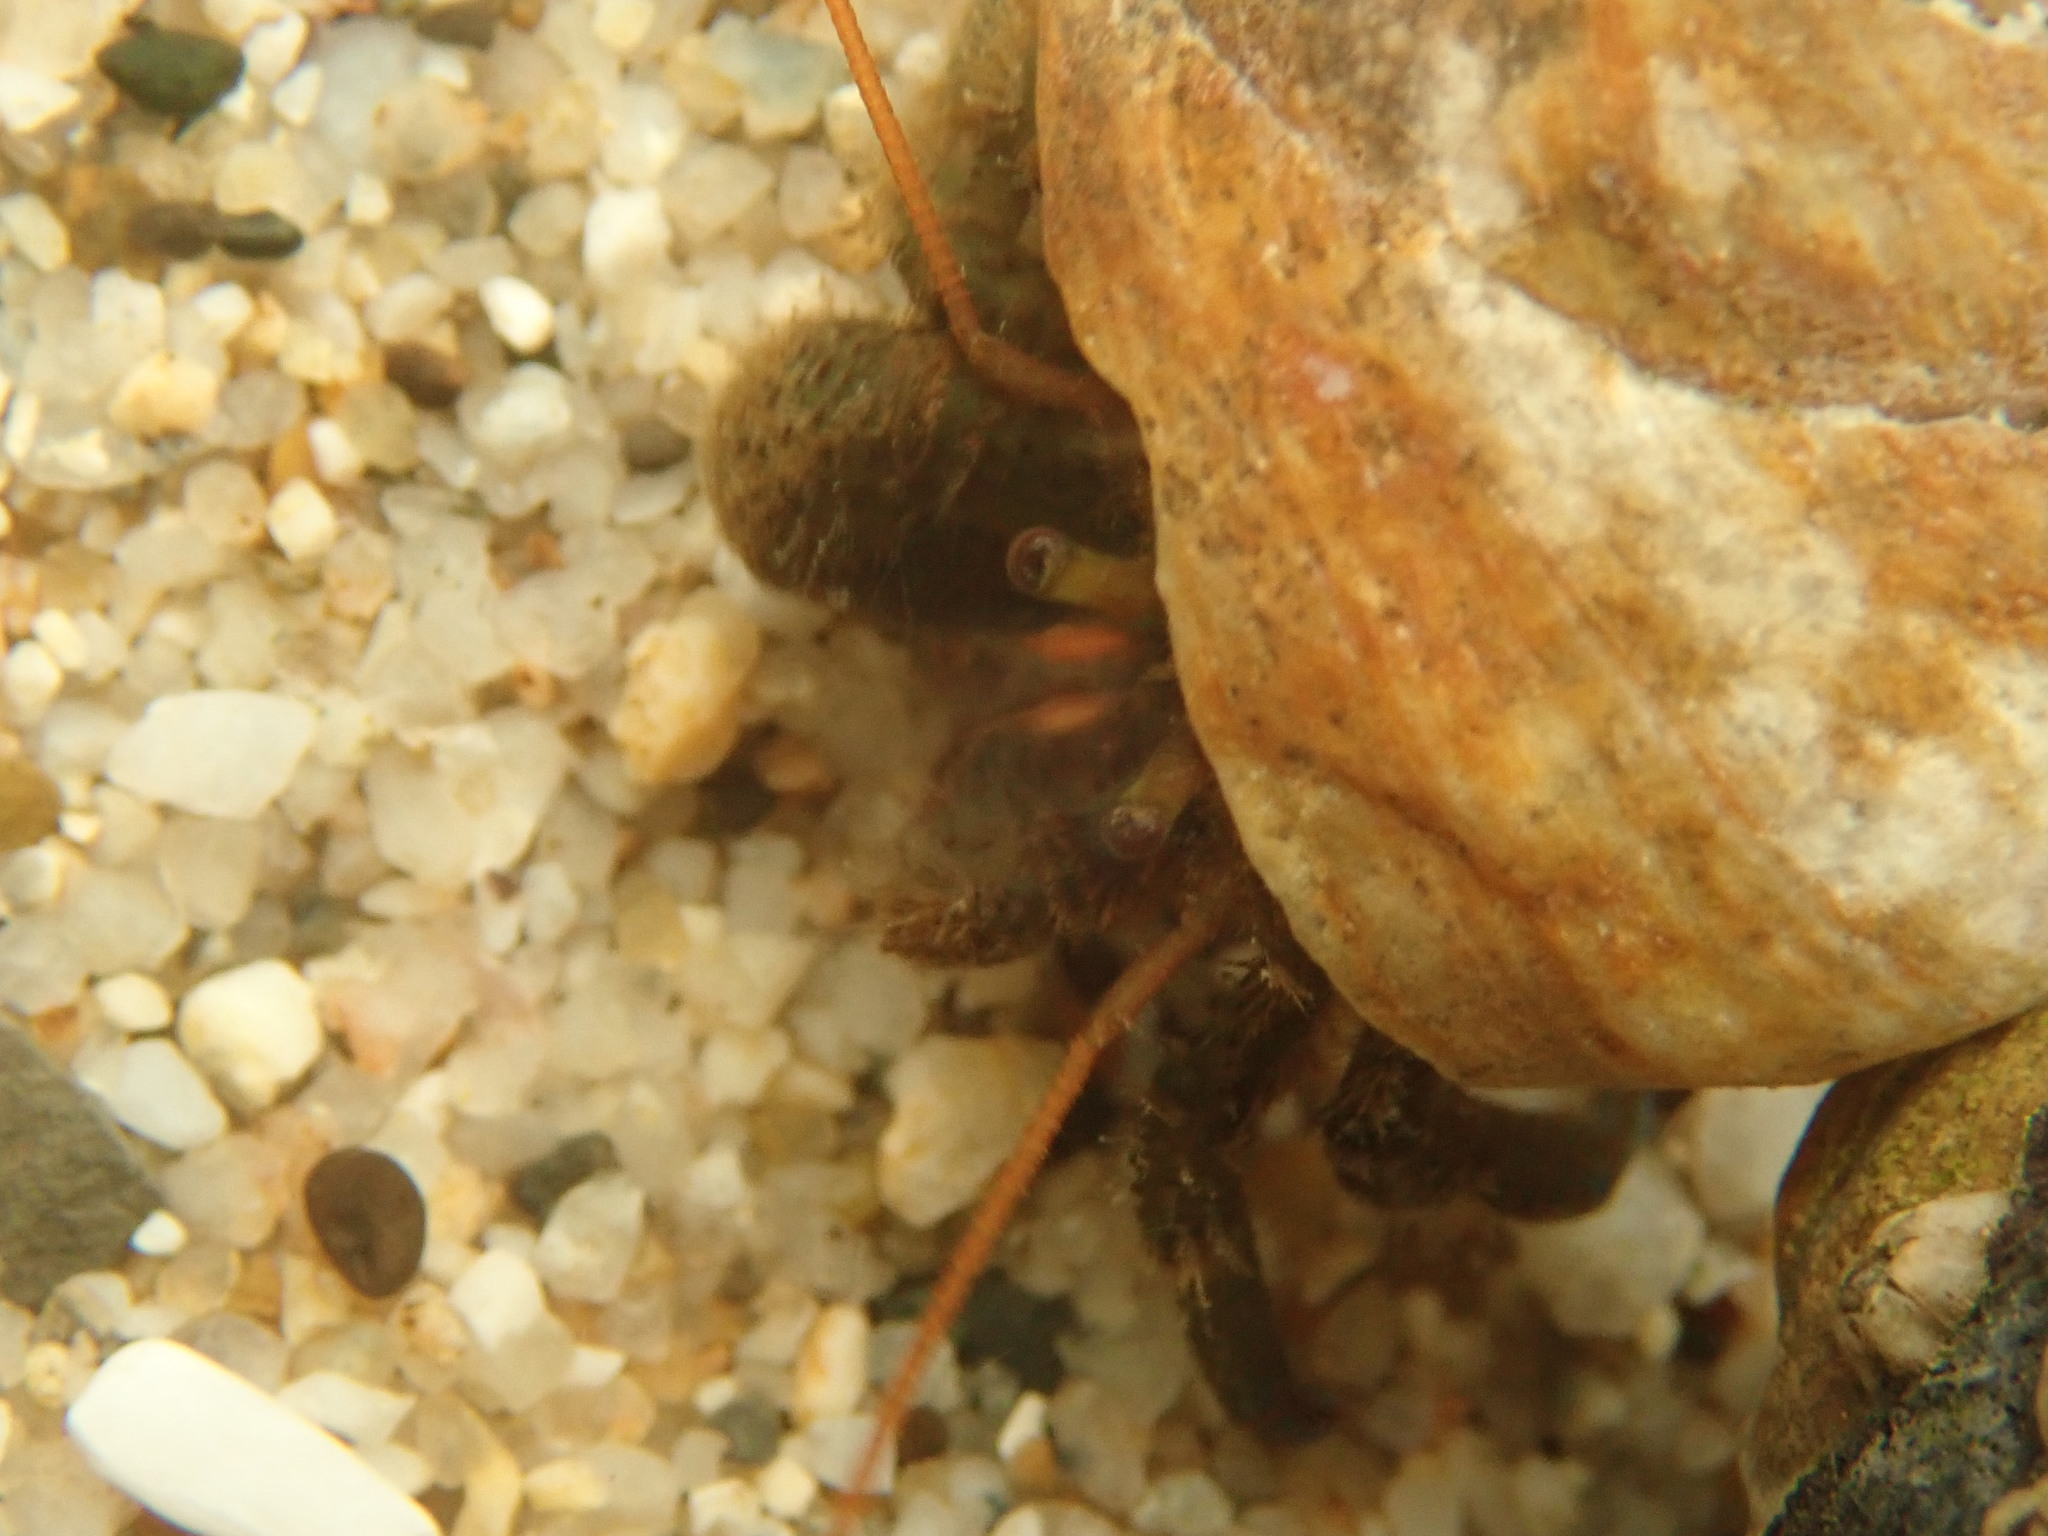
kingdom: Animalia
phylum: Arthropoda
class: Malacostraca
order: Decapoda
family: Paguridae
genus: Pagurus
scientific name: Pagurus samuelis
